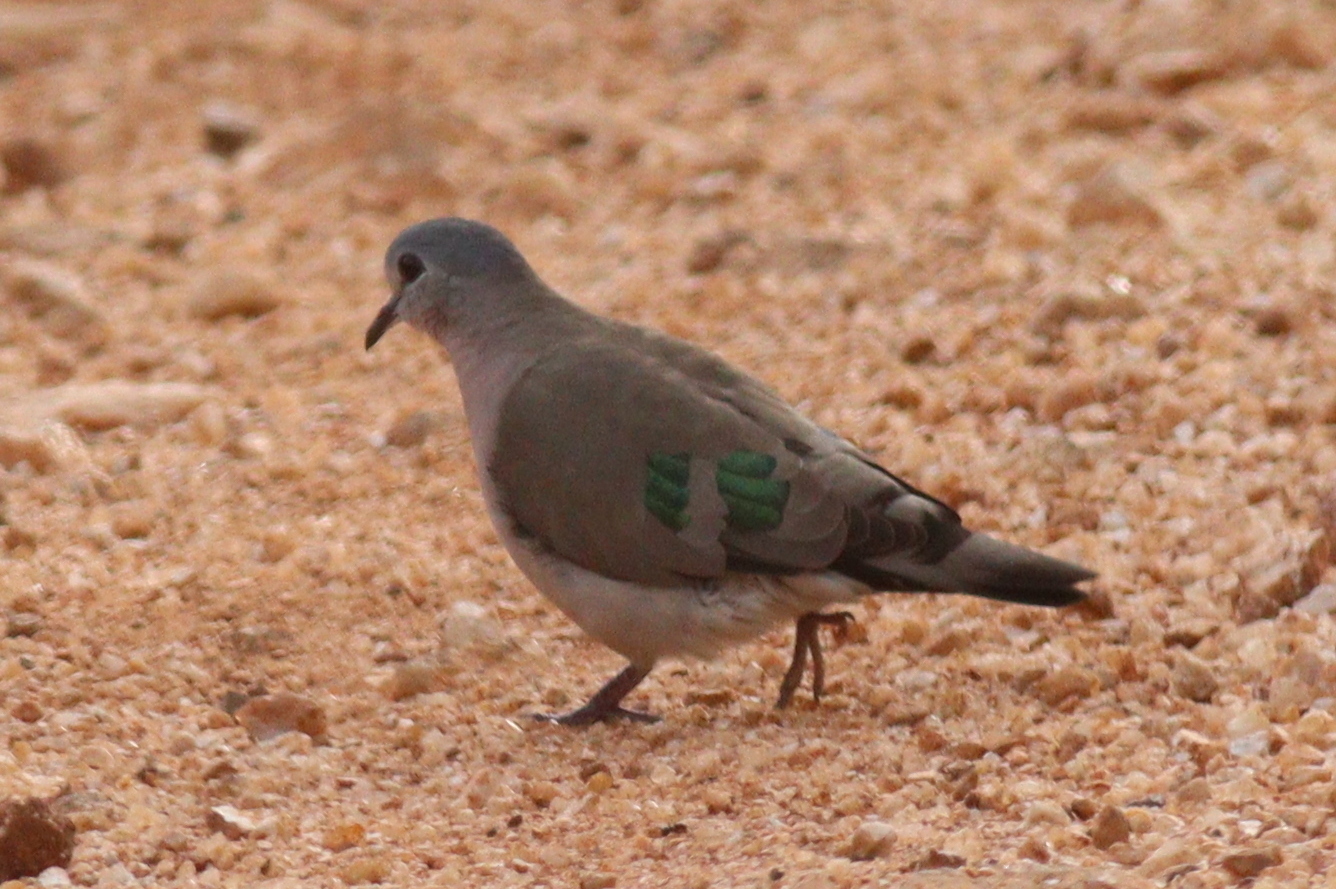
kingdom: Animalia
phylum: Chordata
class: Aves
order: Columbiformes
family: Columbidae
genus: Turtur
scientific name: Turtur chalcospilos
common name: Emerald-spotted wood dove
